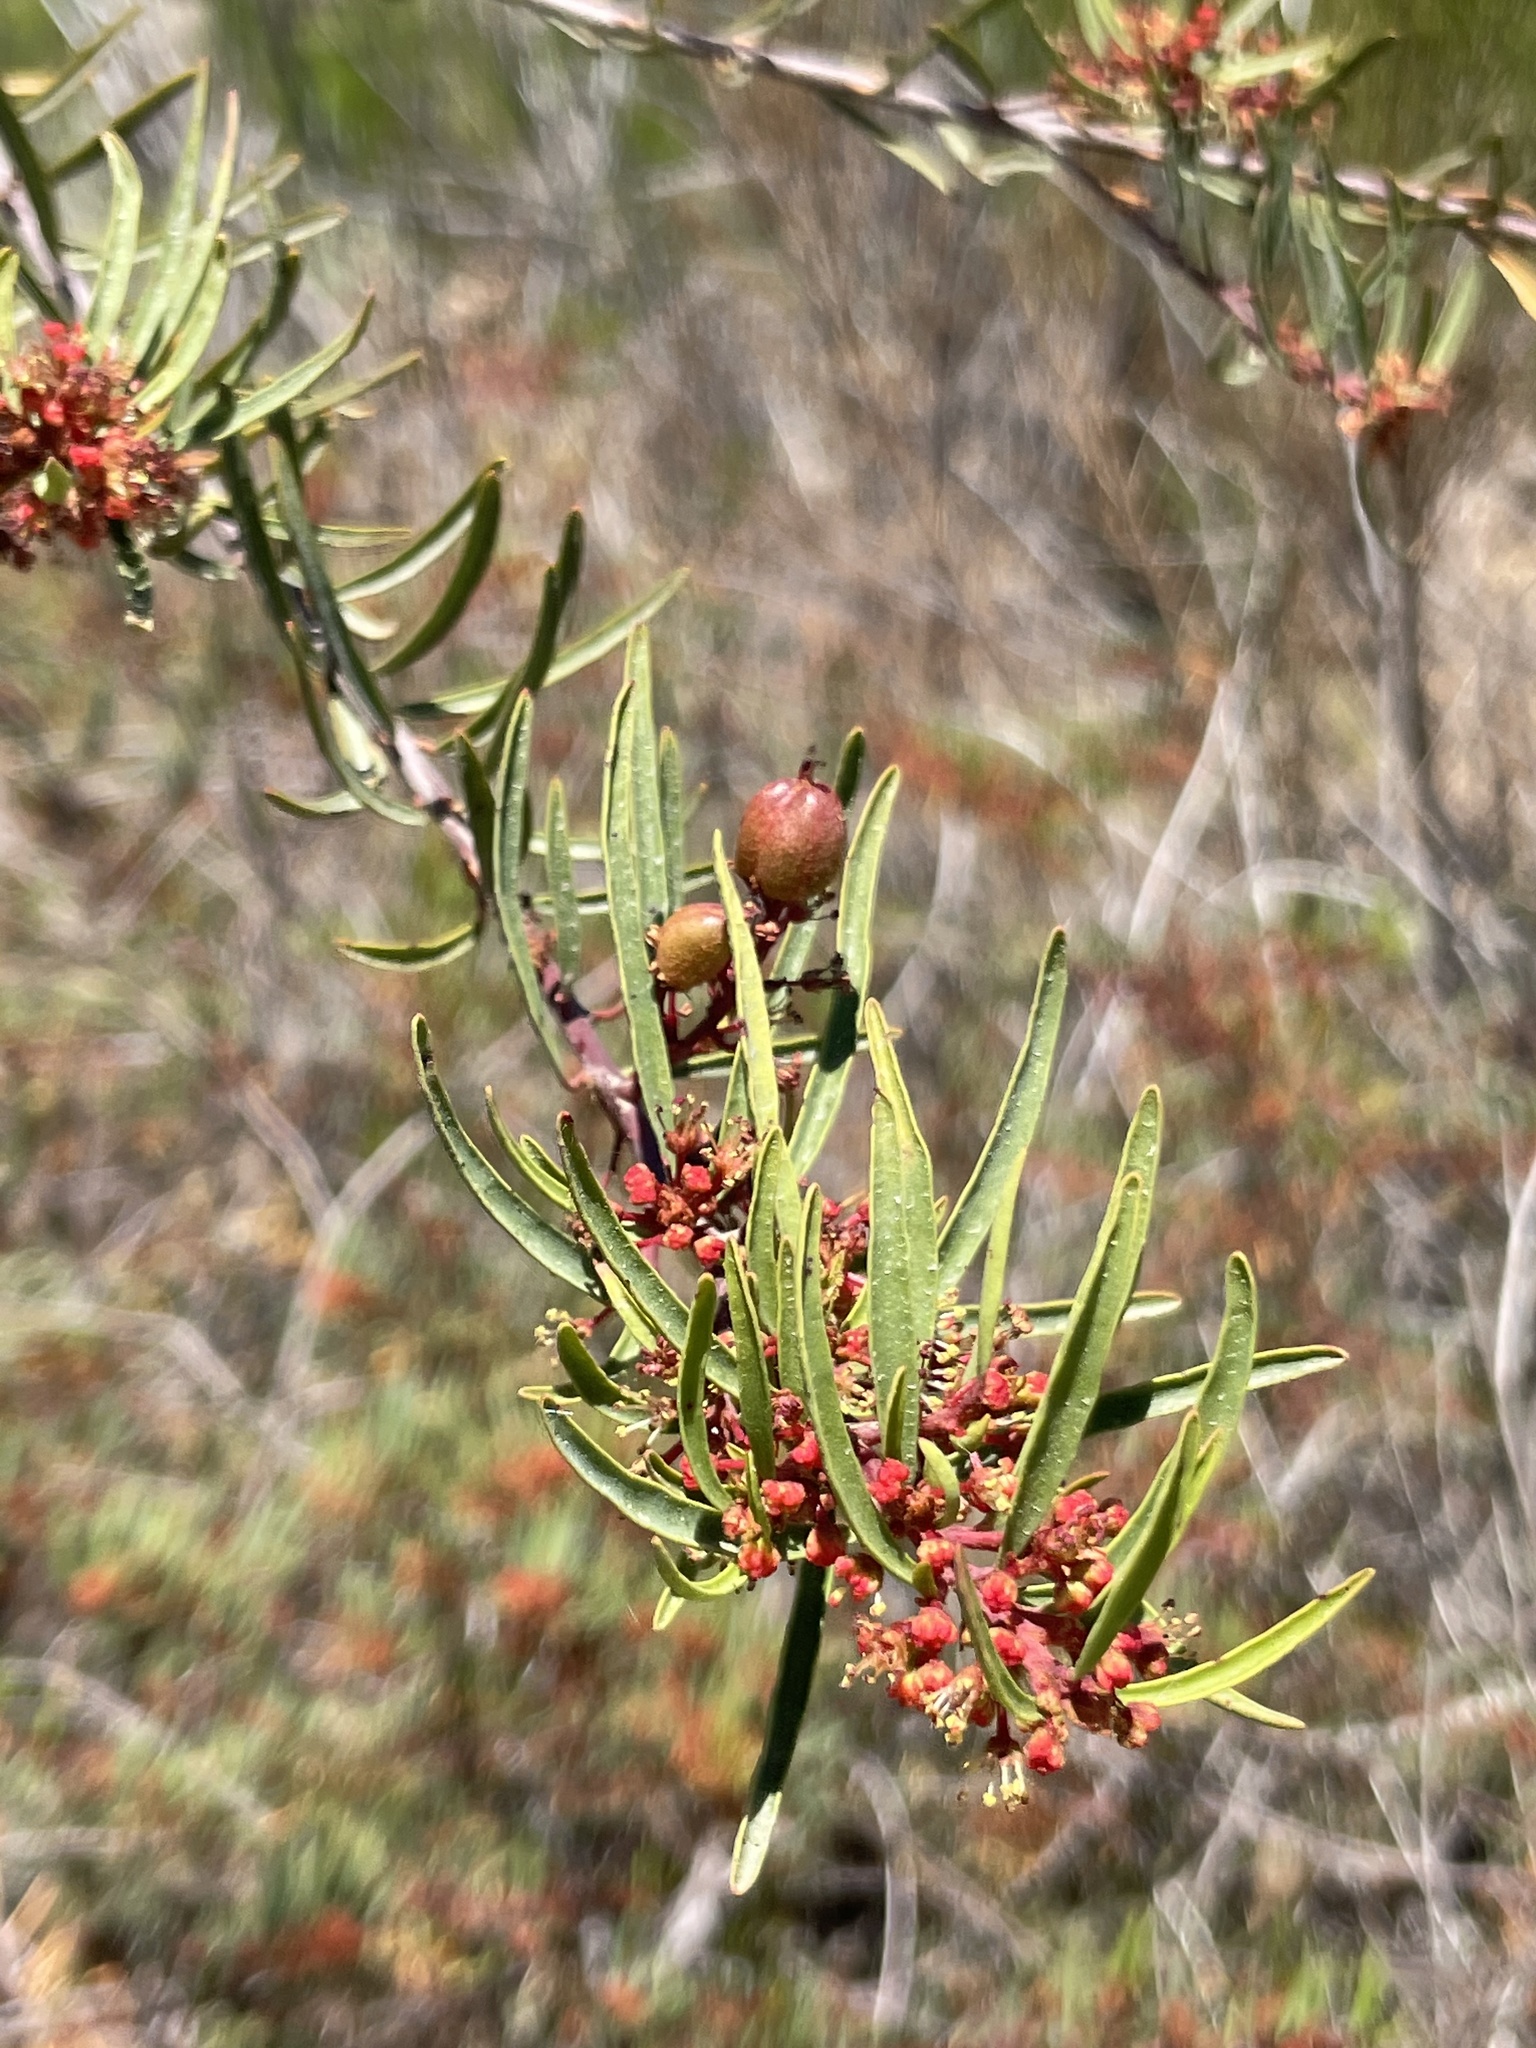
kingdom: Plantae
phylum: Tracheophyta
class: Magnoliopsida
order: Malpighiales
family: Picrodendraceae
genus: Tetracoccus
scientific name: Tetracoccus dioicus
